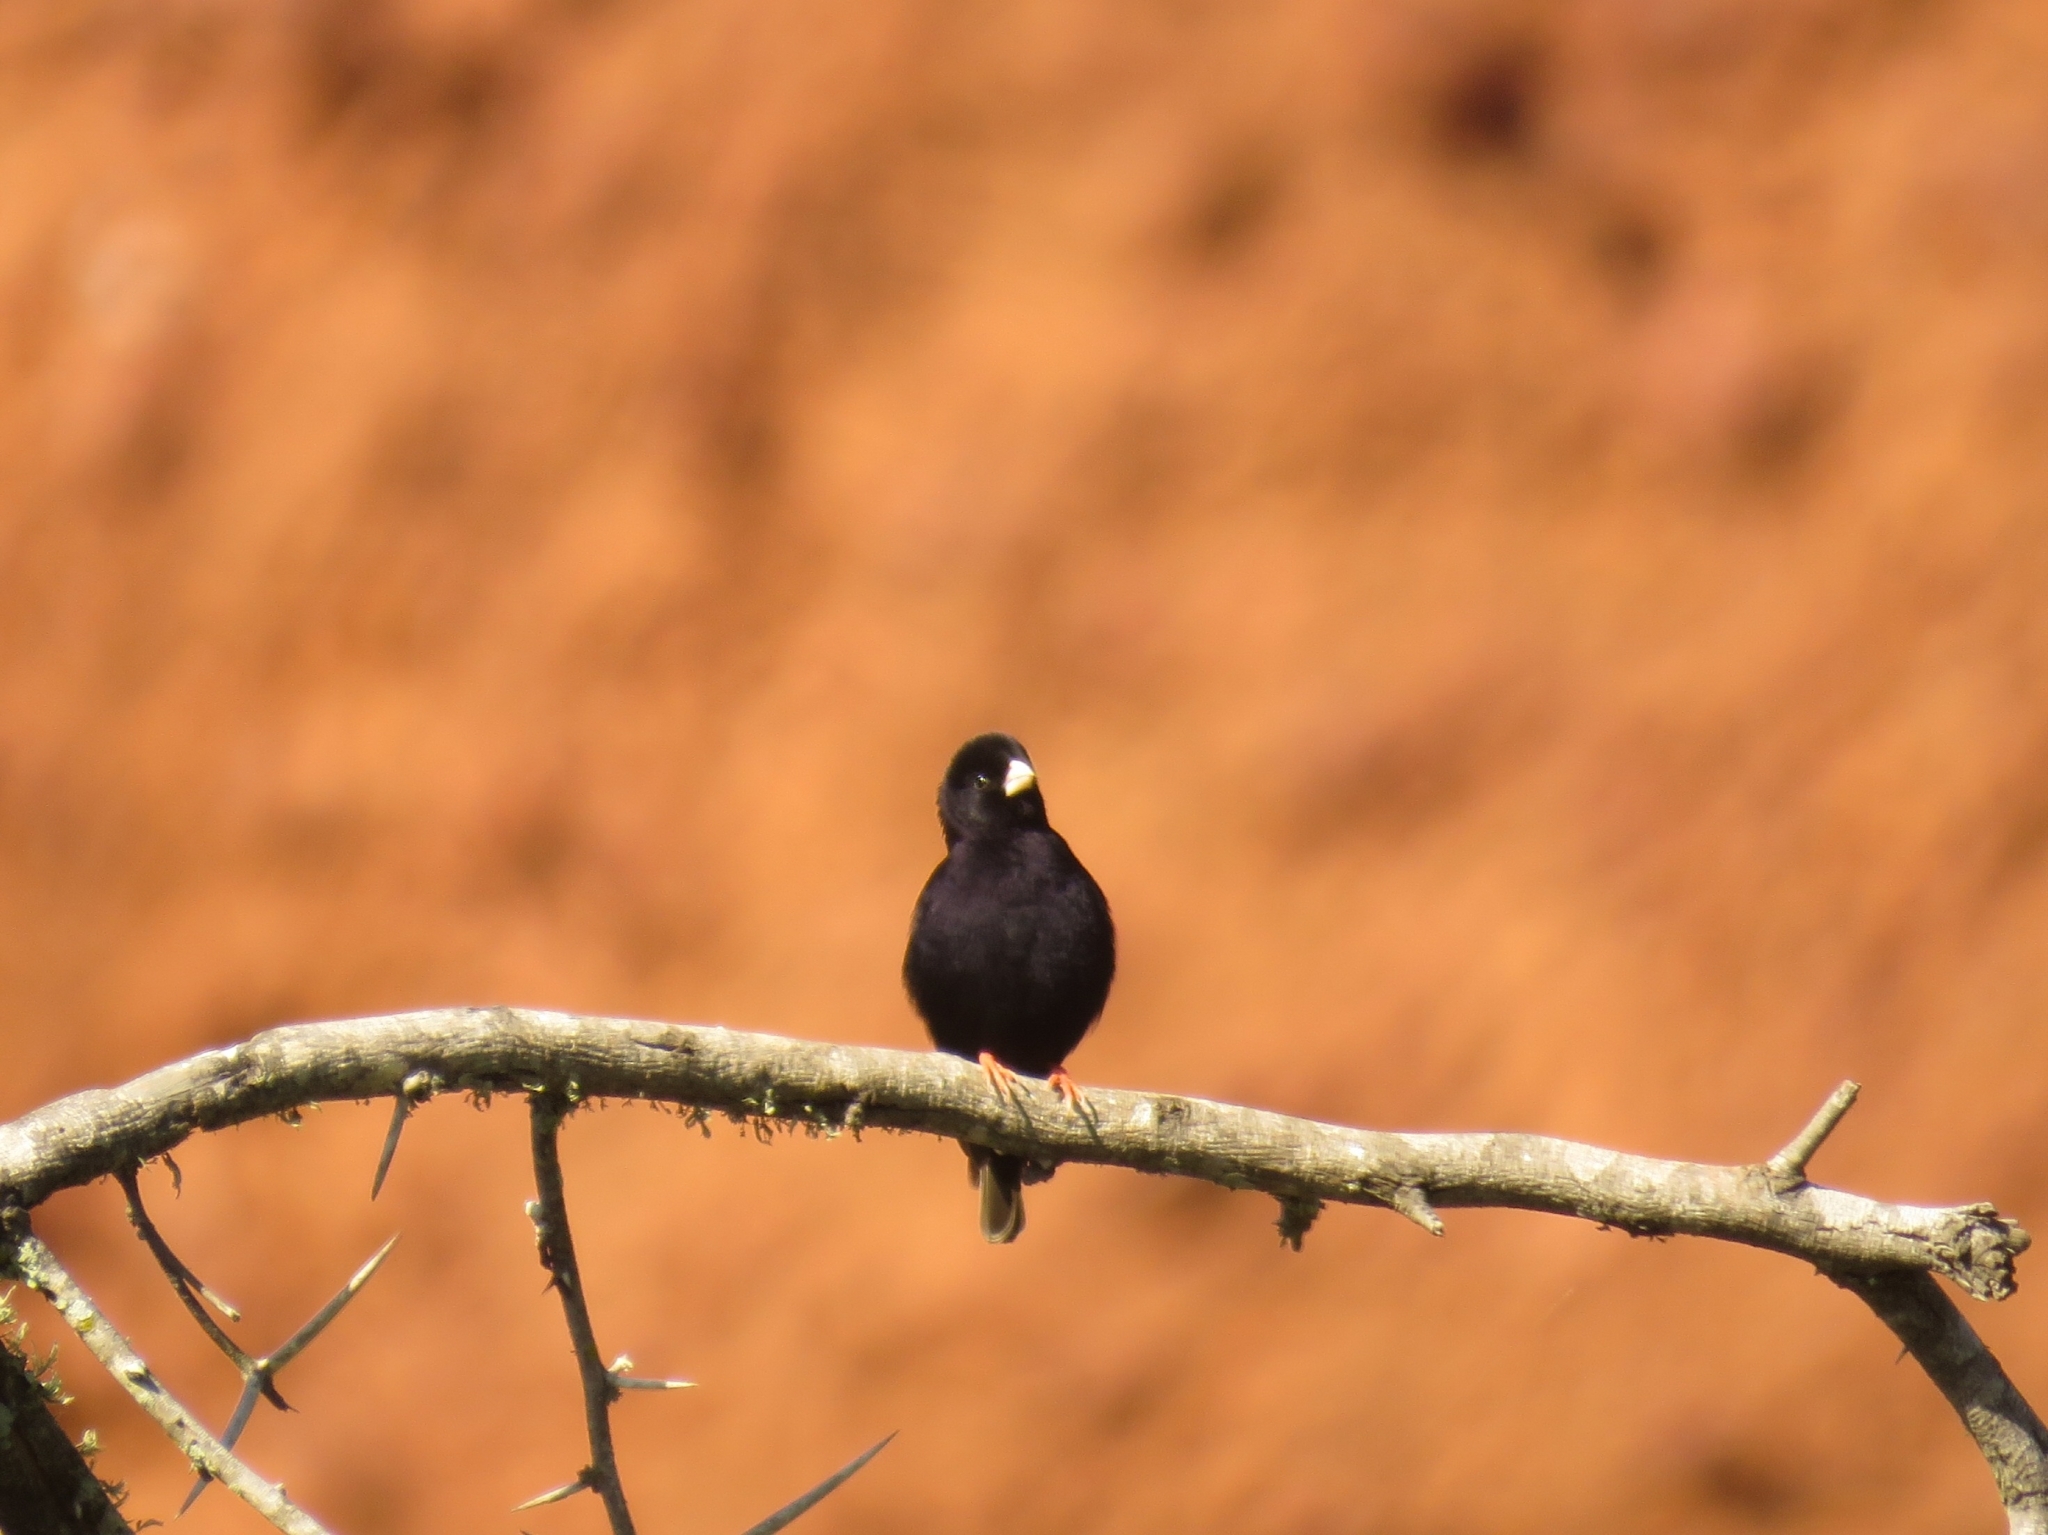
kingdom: Animalia
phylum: Chordata
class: Aves
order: Passeriformes
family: Viduidae
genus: Vidua
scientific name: Vidua funerea
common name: Dusky indigobird
